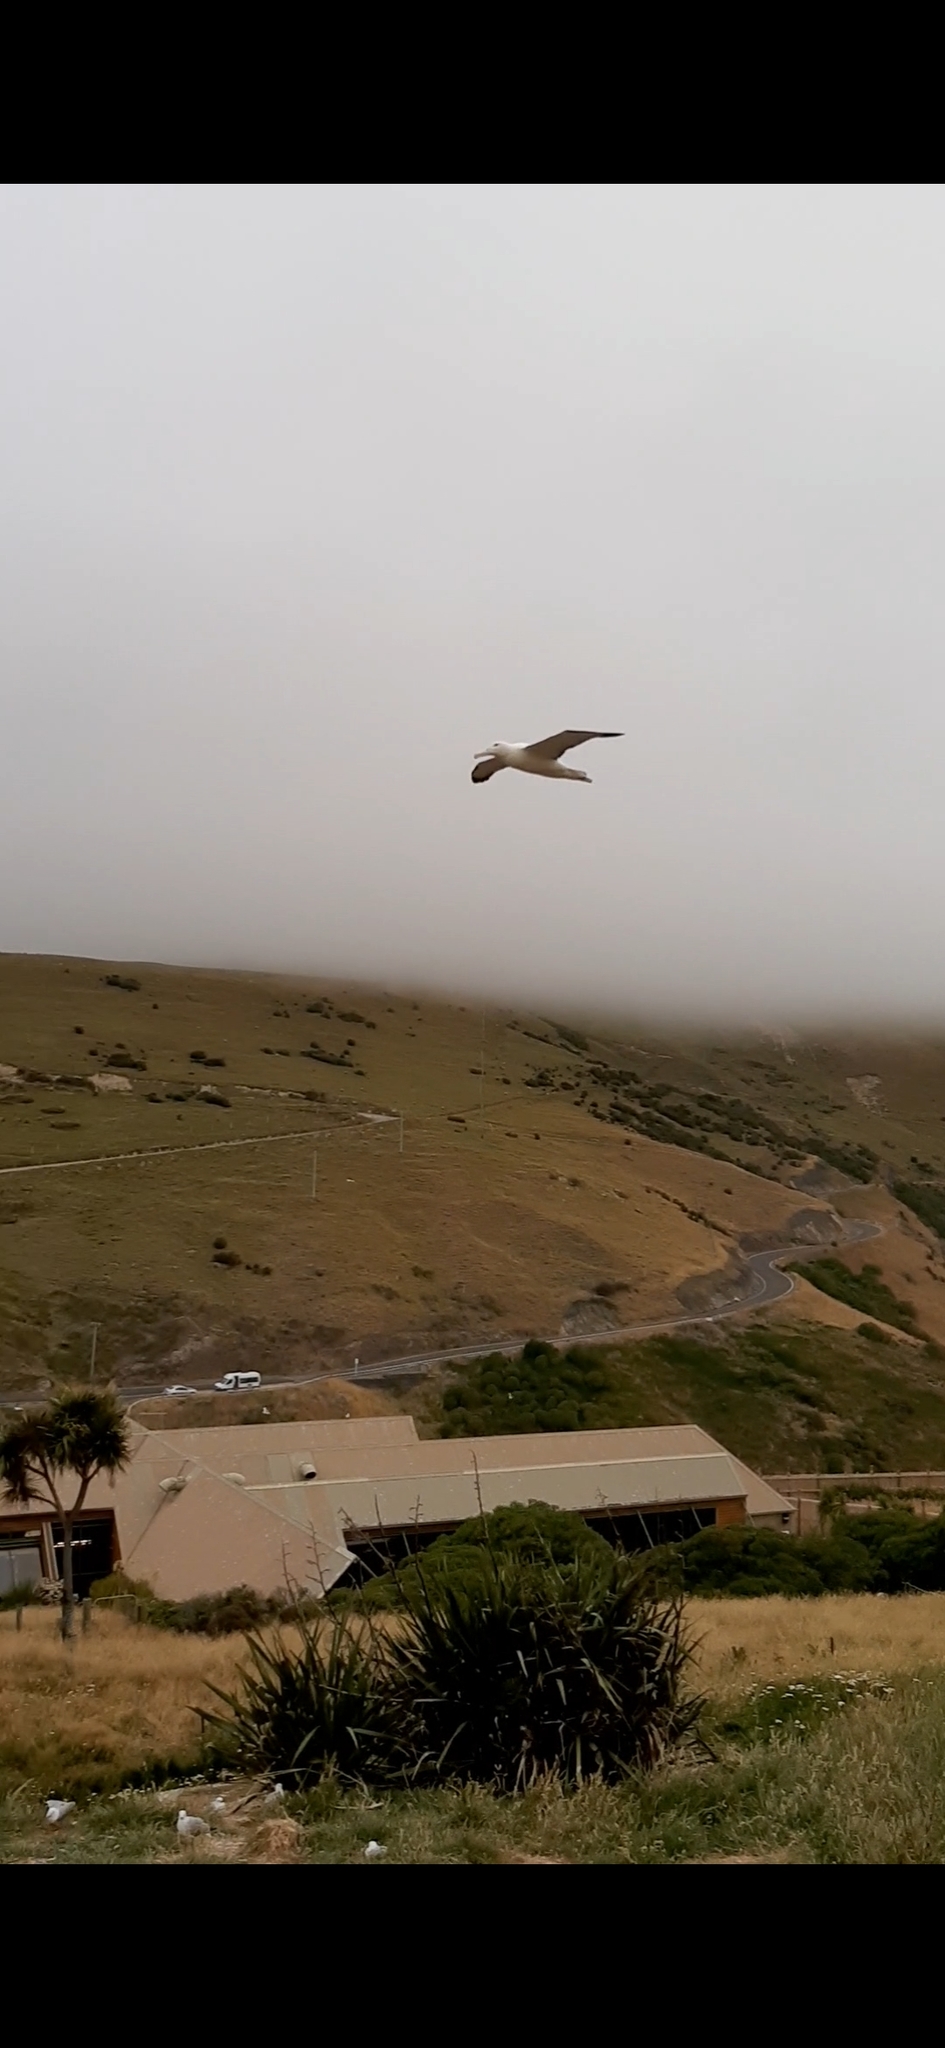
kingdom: Animalia
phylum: Chordata
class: Aves
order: Procellariiformes
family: Diomedeidae
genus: Diomedea
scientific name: Diomedea sanfordi
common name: Northern royal albatross
